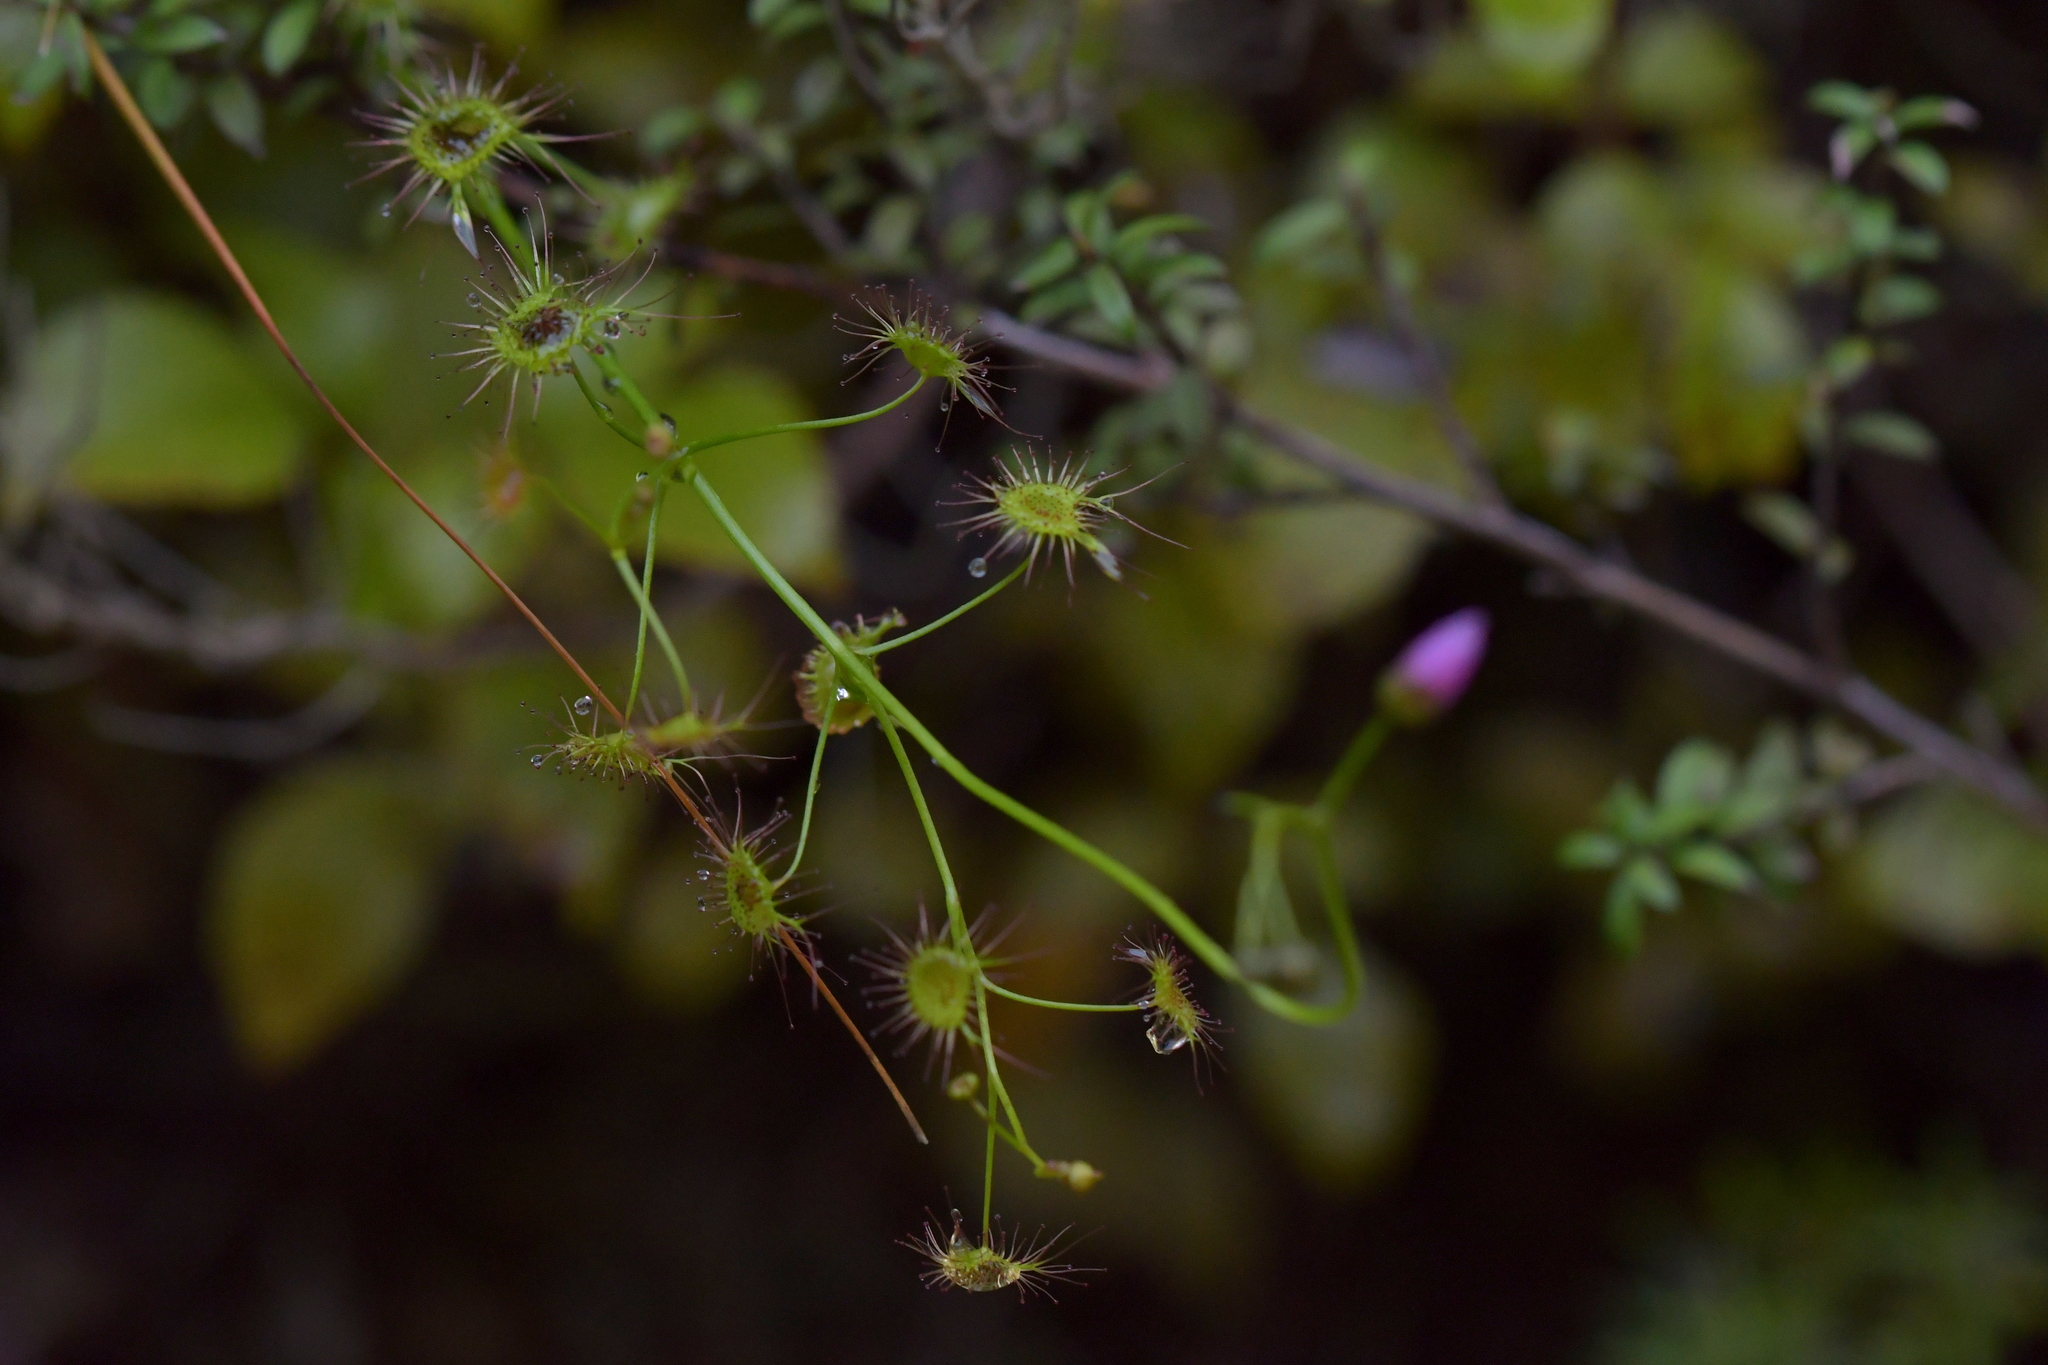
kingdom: Plantae
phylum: Tracheophyta
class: Magnoliopsida
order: Caryophyllales
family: Droseraceae
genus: Drosera
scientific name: Drosera peltata
